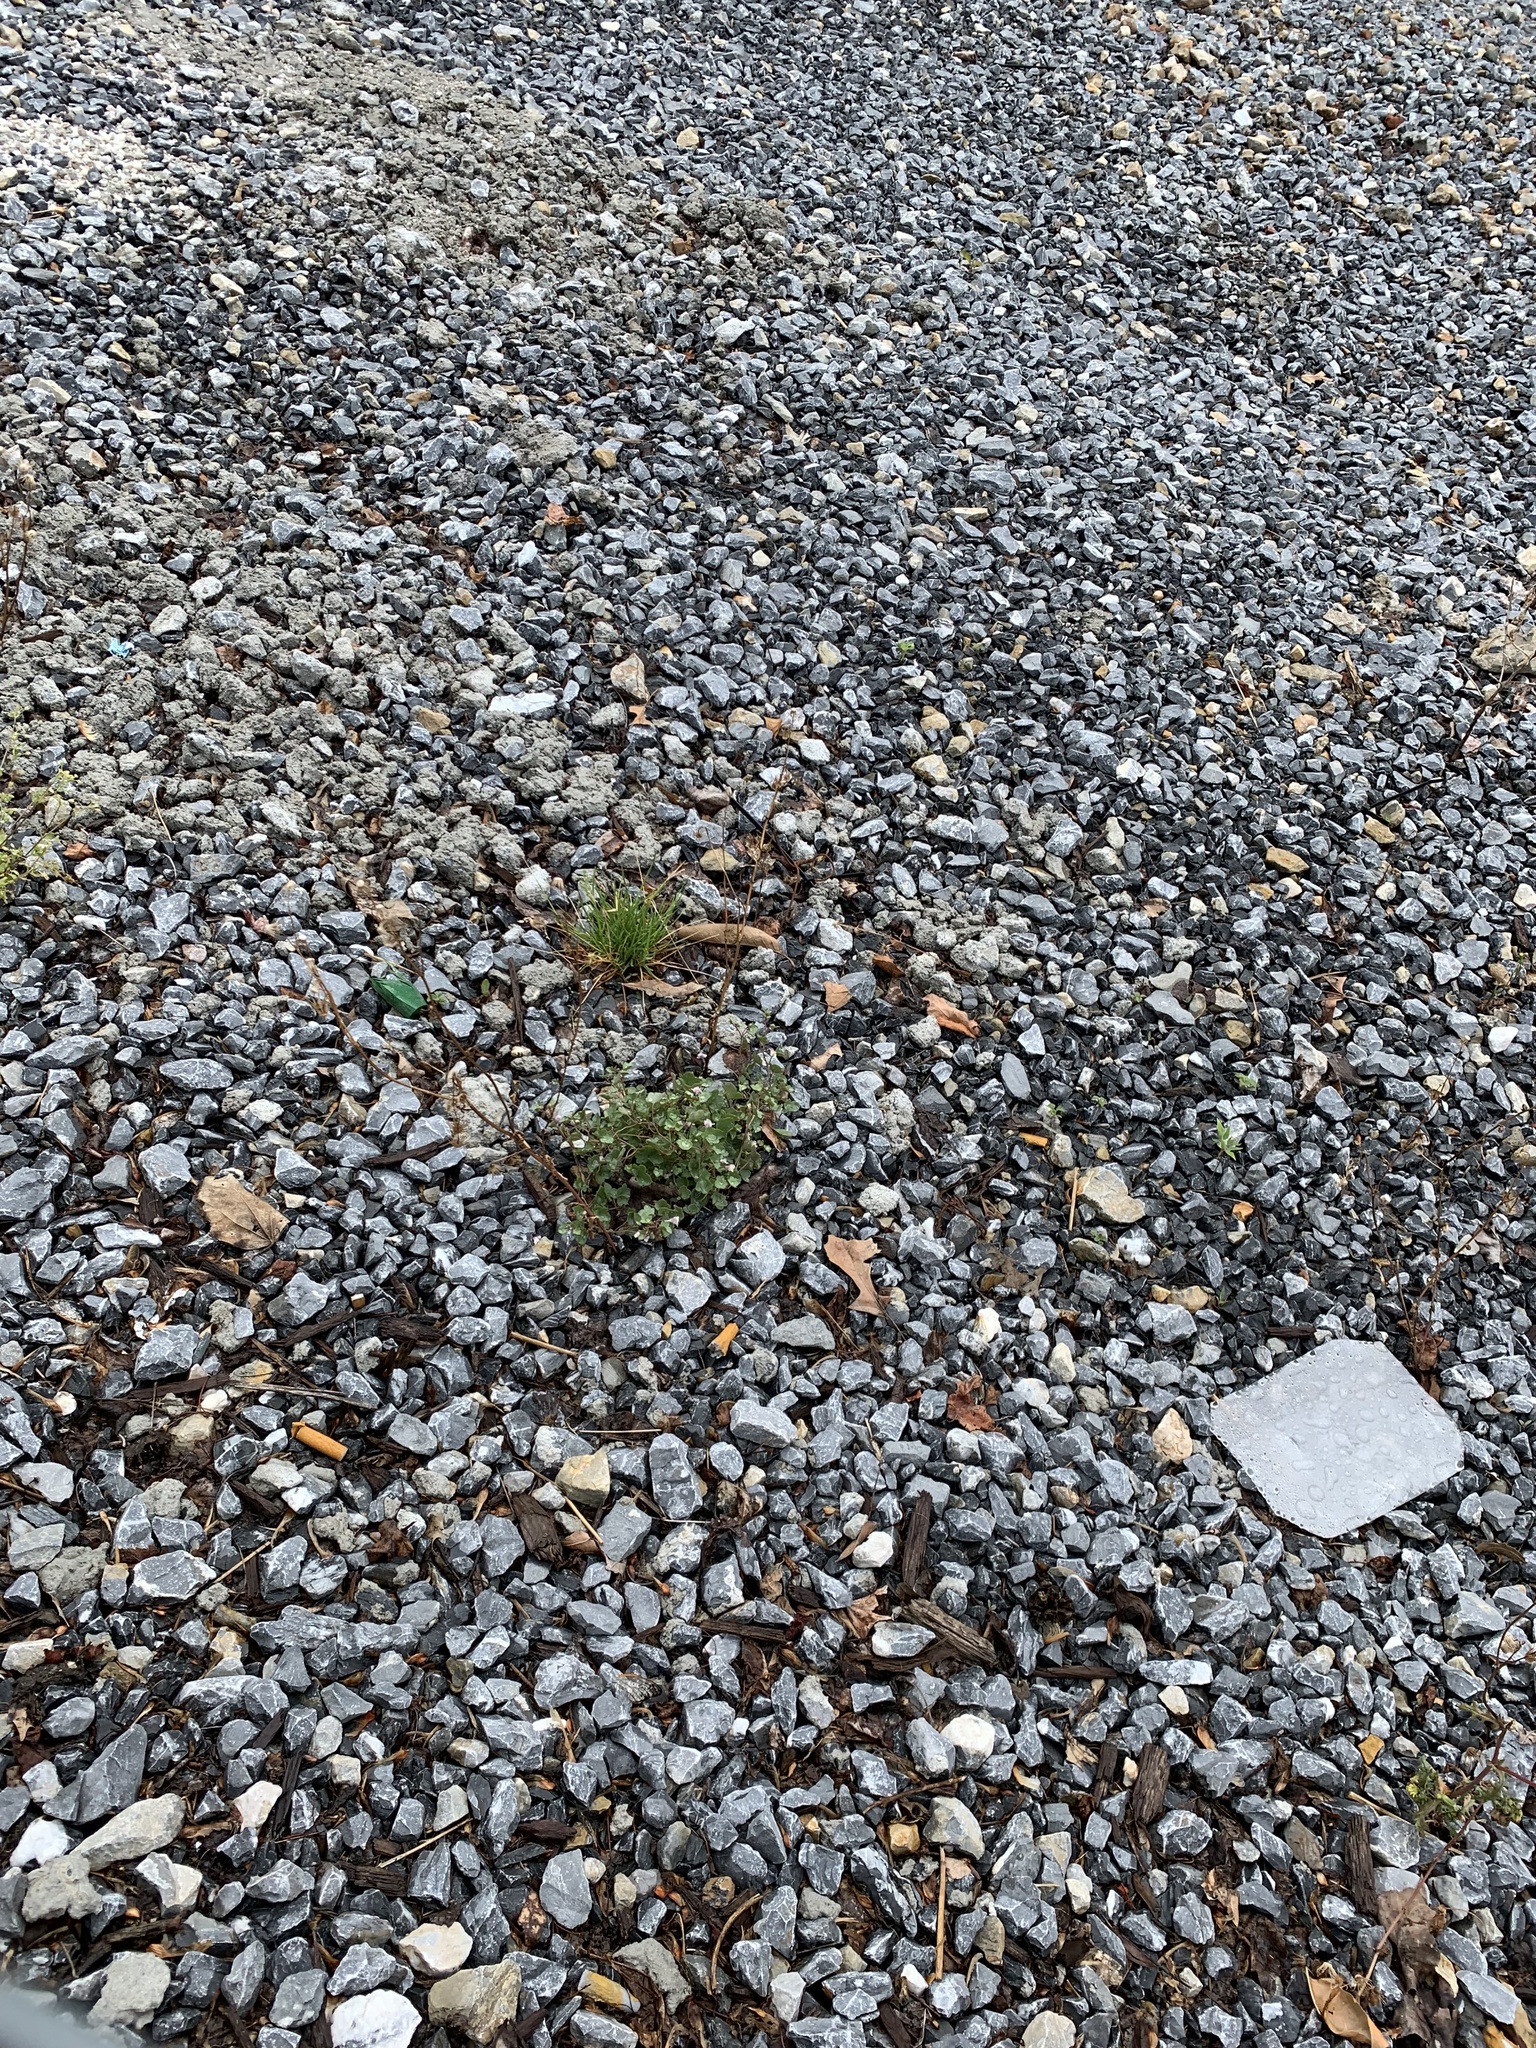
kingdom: Plantae
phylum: Tracheophyta
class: Magnoliopsida
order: Lamiales
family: Plantaginaceae
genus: Cymbalaria
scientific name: Cymbalaria muralis
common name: Ivy-leaved toadflax
